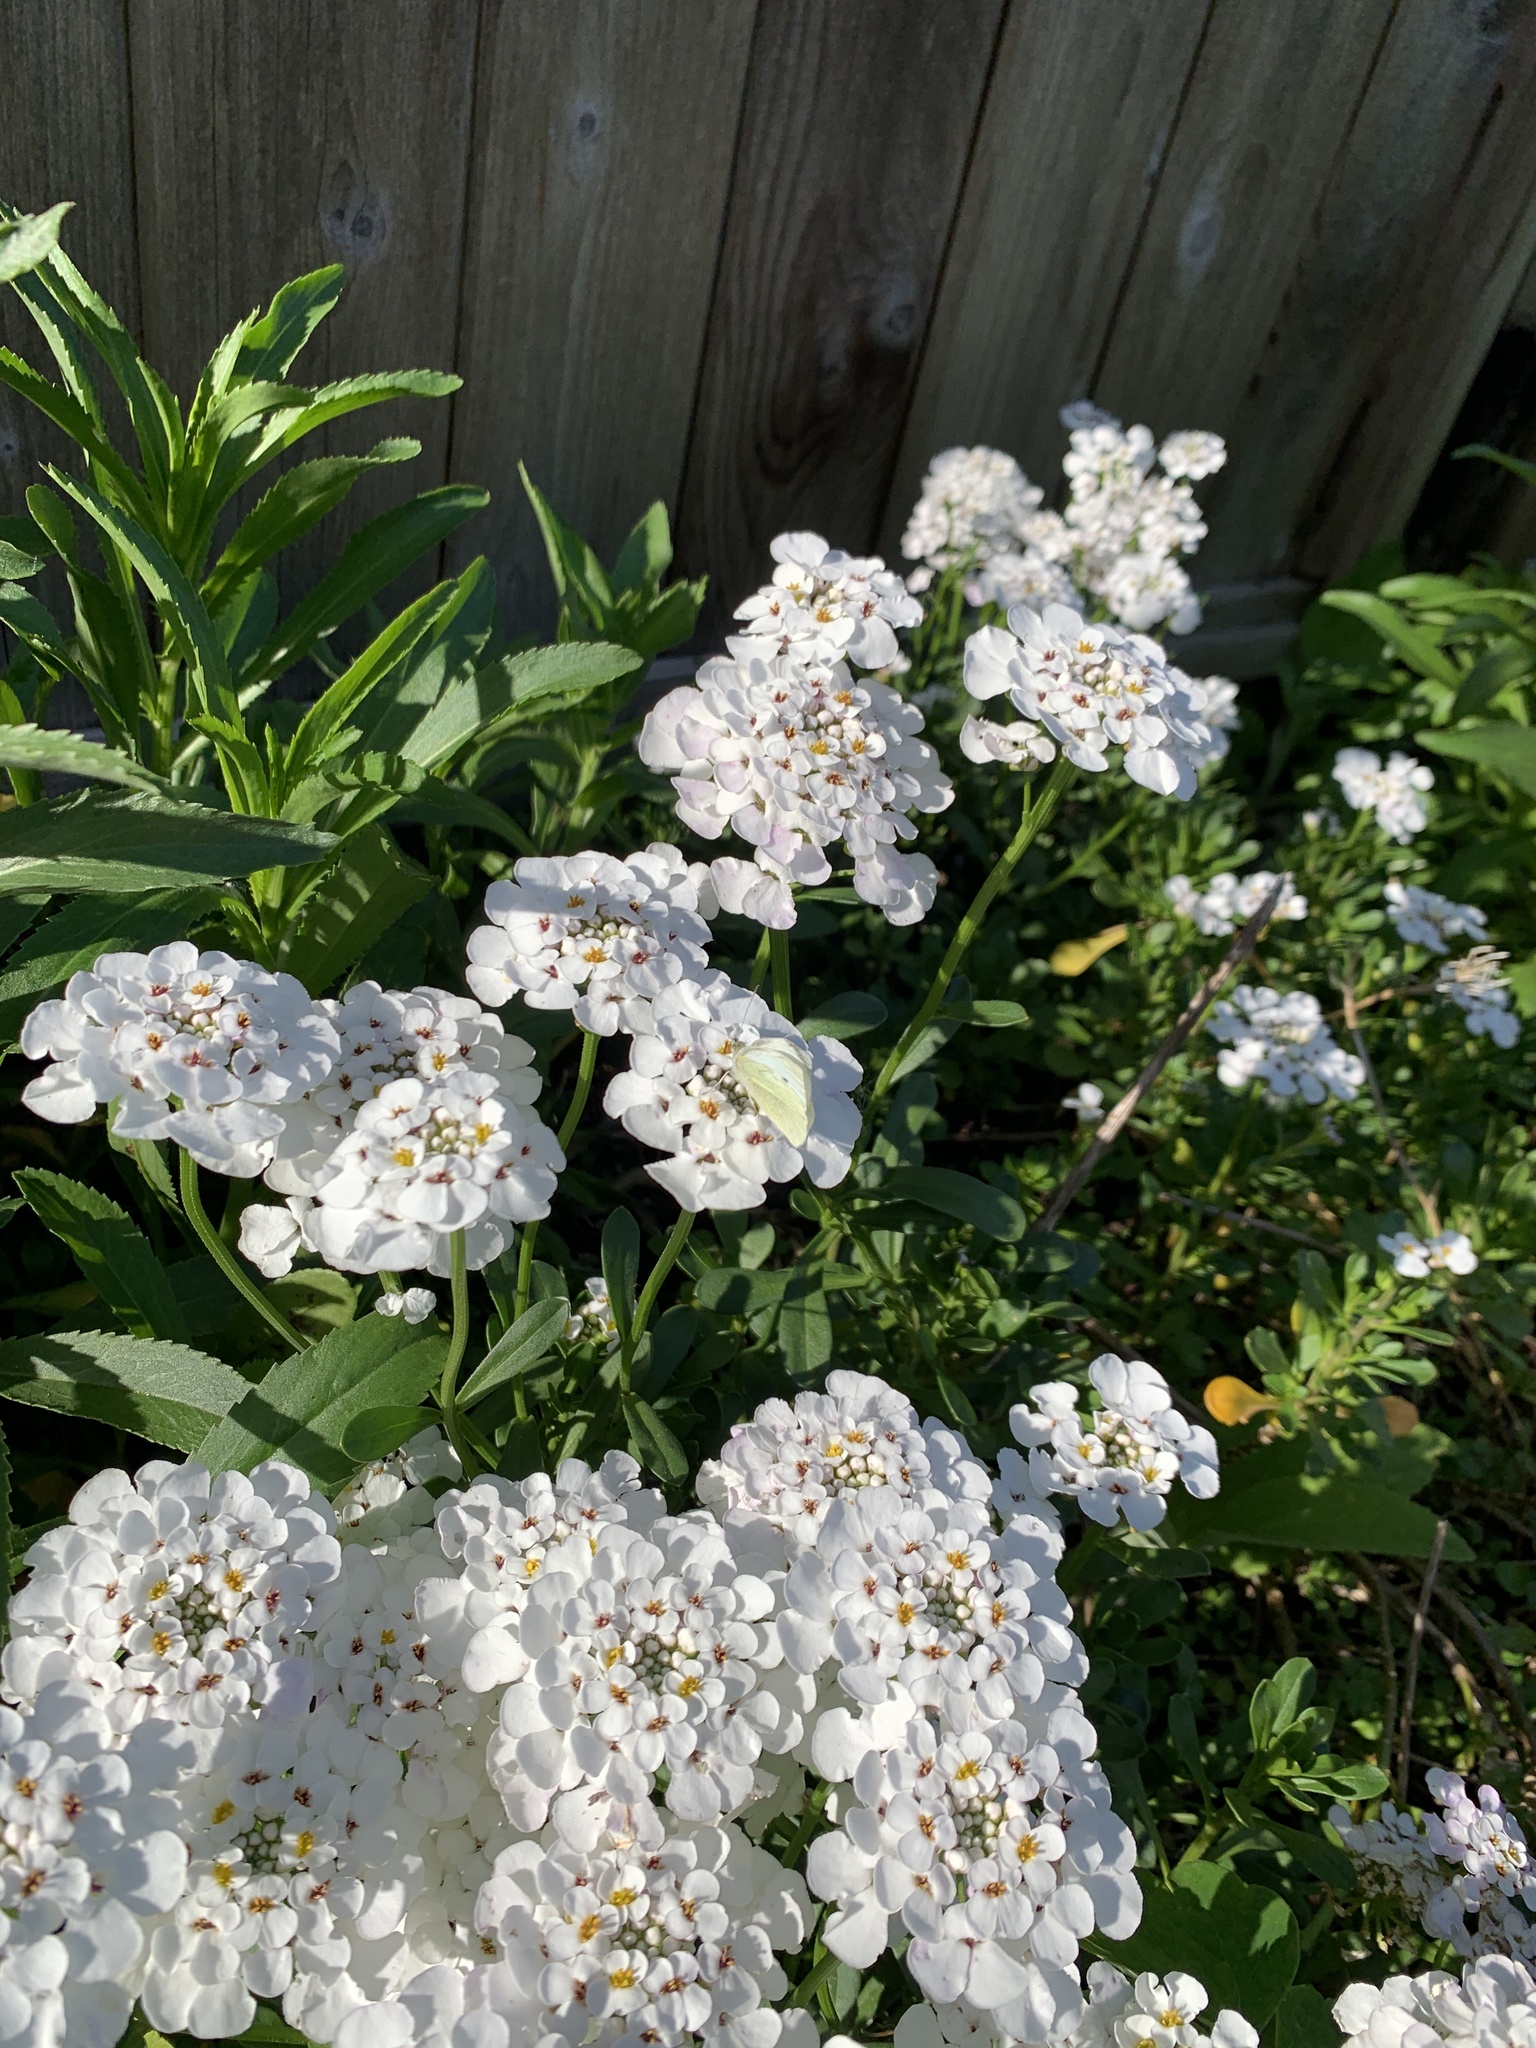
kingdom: Animalia
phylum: Arthropoda
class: Insecta
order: Lepidoptera
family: Pieridae
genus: Pieris
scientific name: Pieris rapae
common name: Small white
